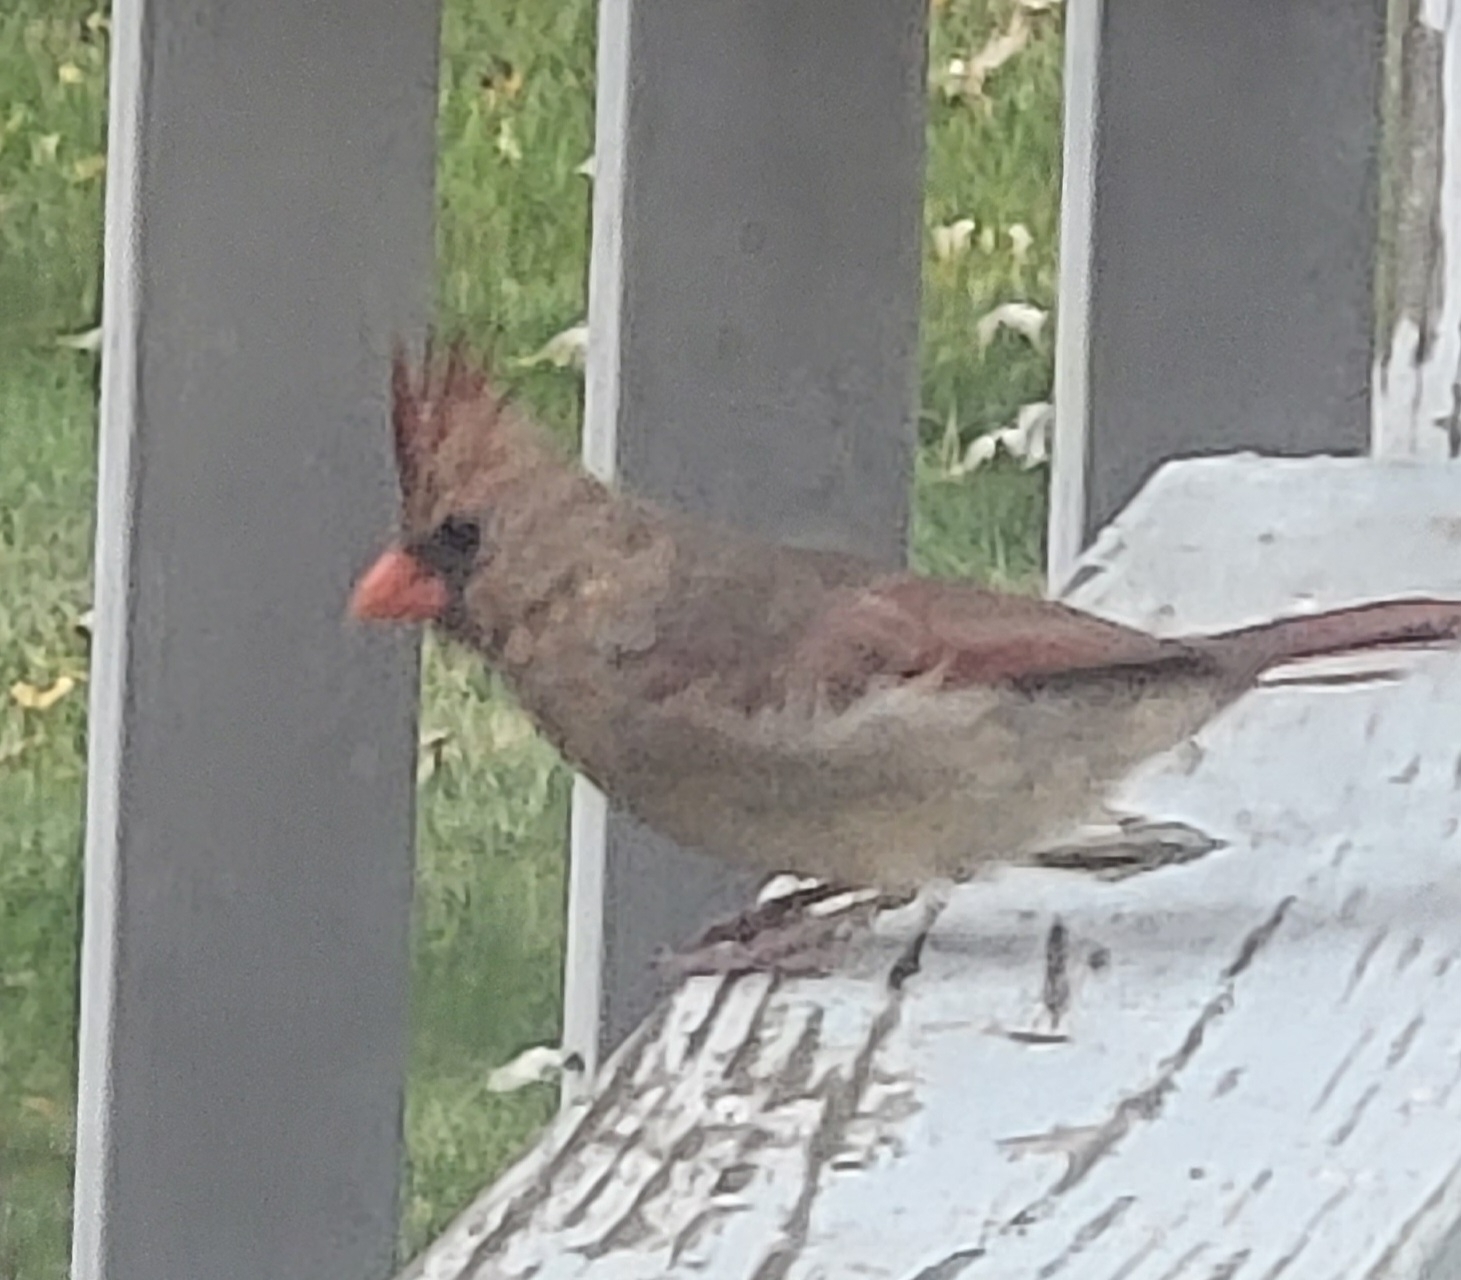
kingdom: Animalia
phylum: Chordata
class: Aves
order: Passeriformes
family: Cardinalidae
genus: Cardinalis
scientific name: Cardinalis cardinalis
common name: Northern cardinal
